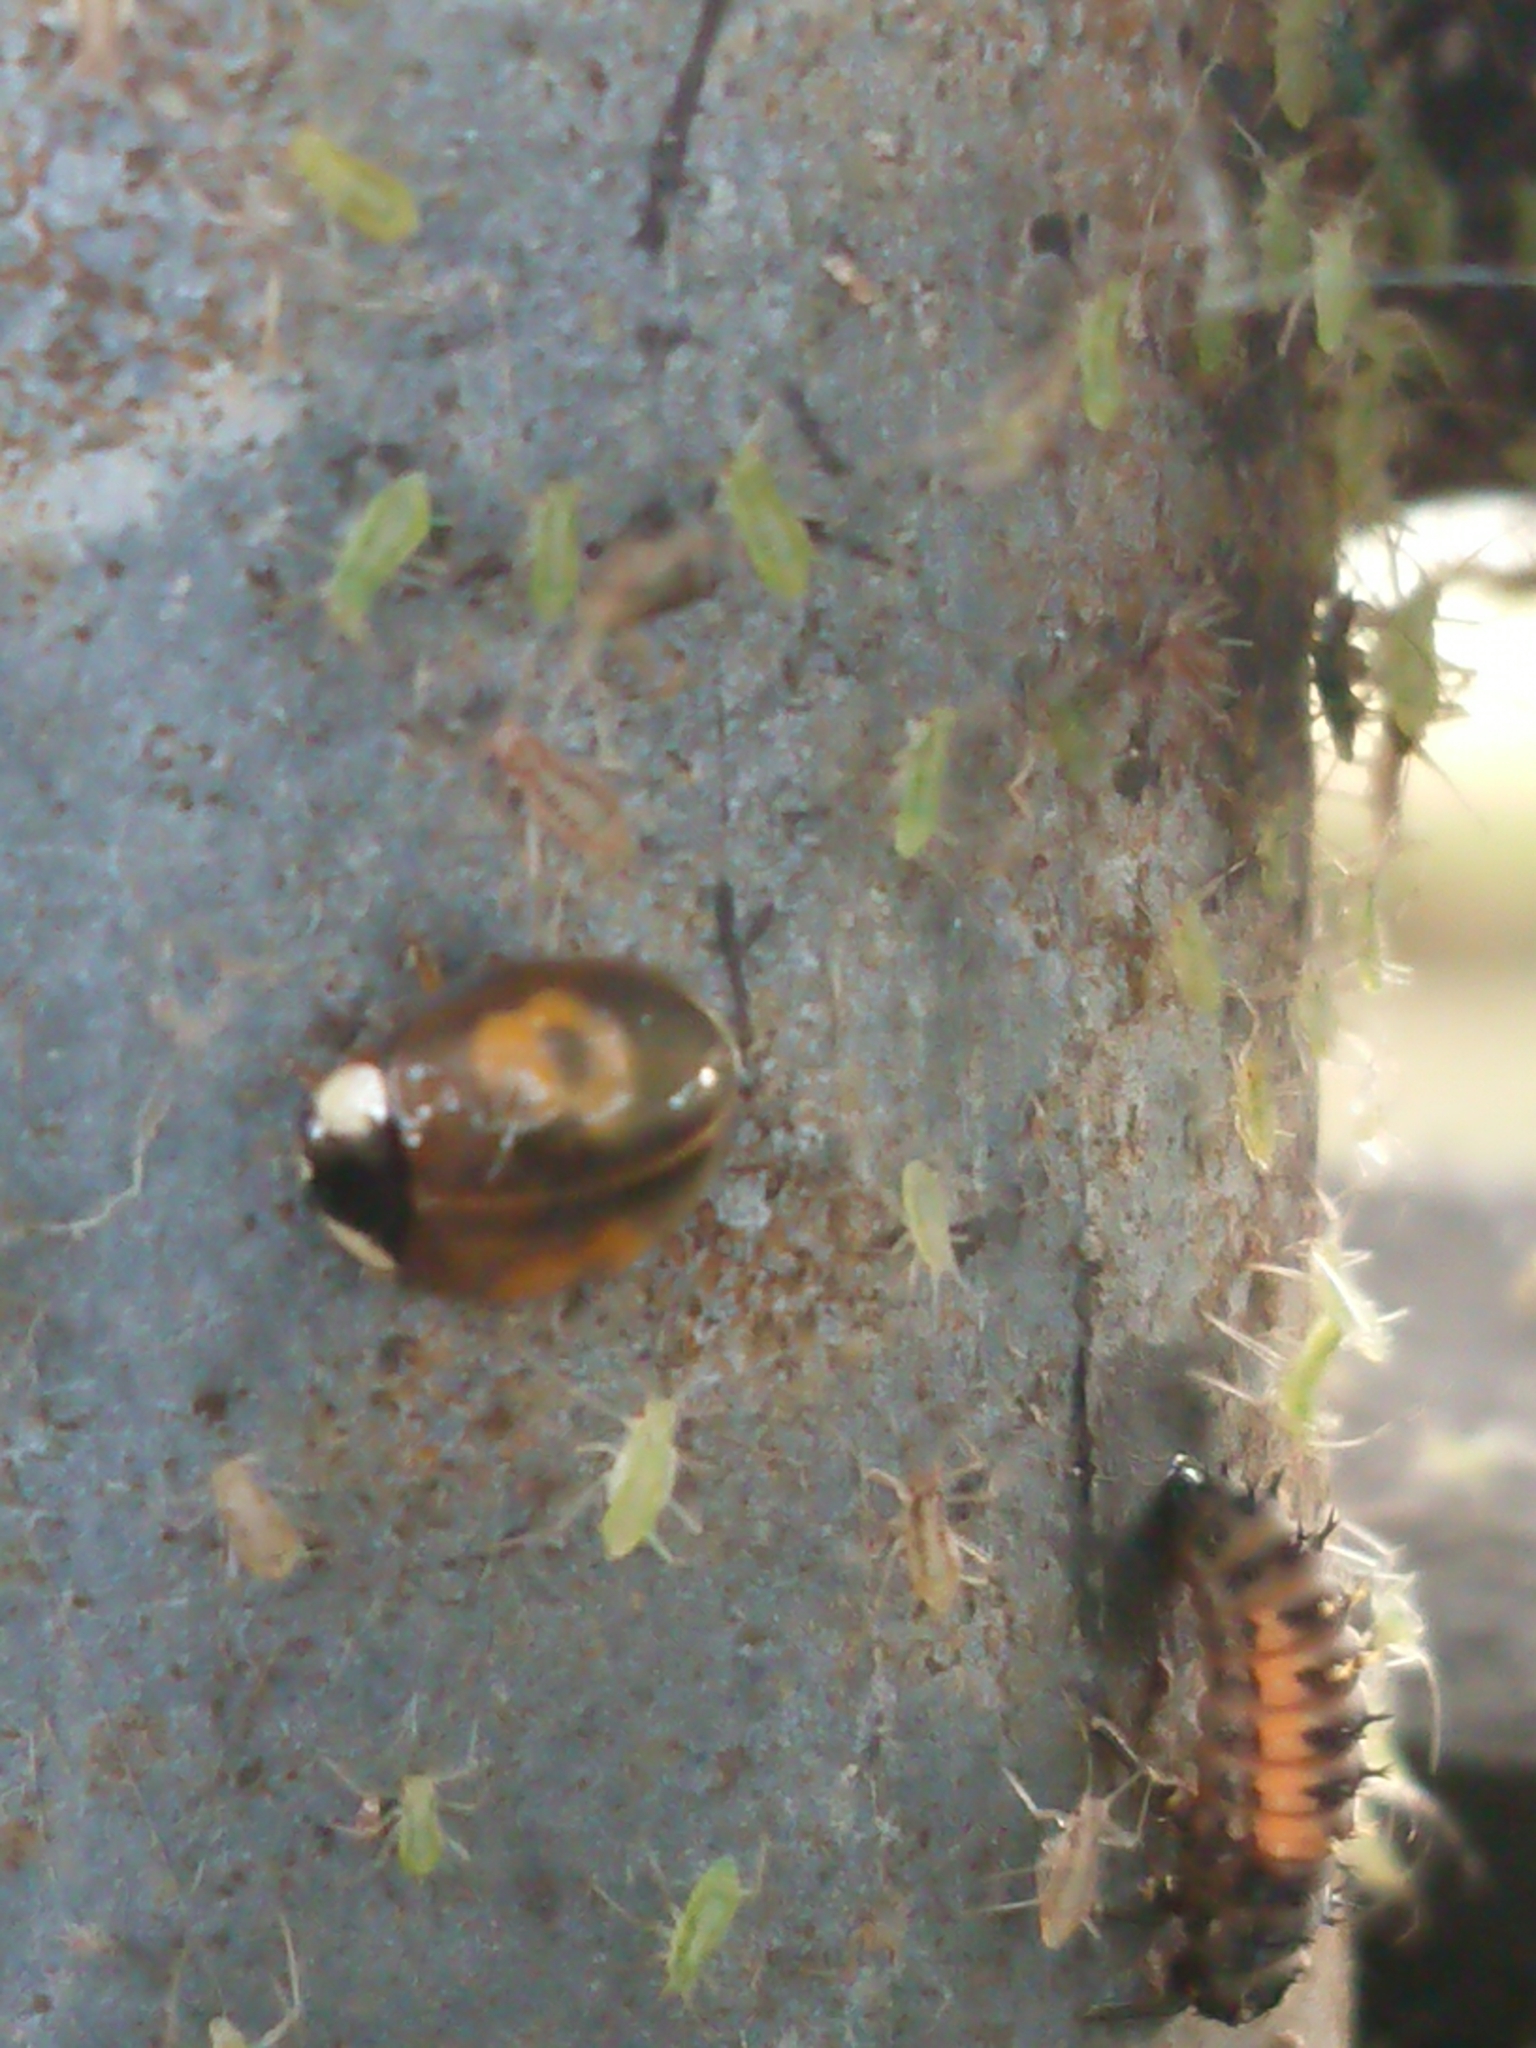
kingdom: Animalia
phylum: Arthropoda
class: Insecta
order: Coleoptera
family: Coccinellidae
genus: Harmonia
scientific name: Harmonia axyridis
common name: Harlequin ladybird
